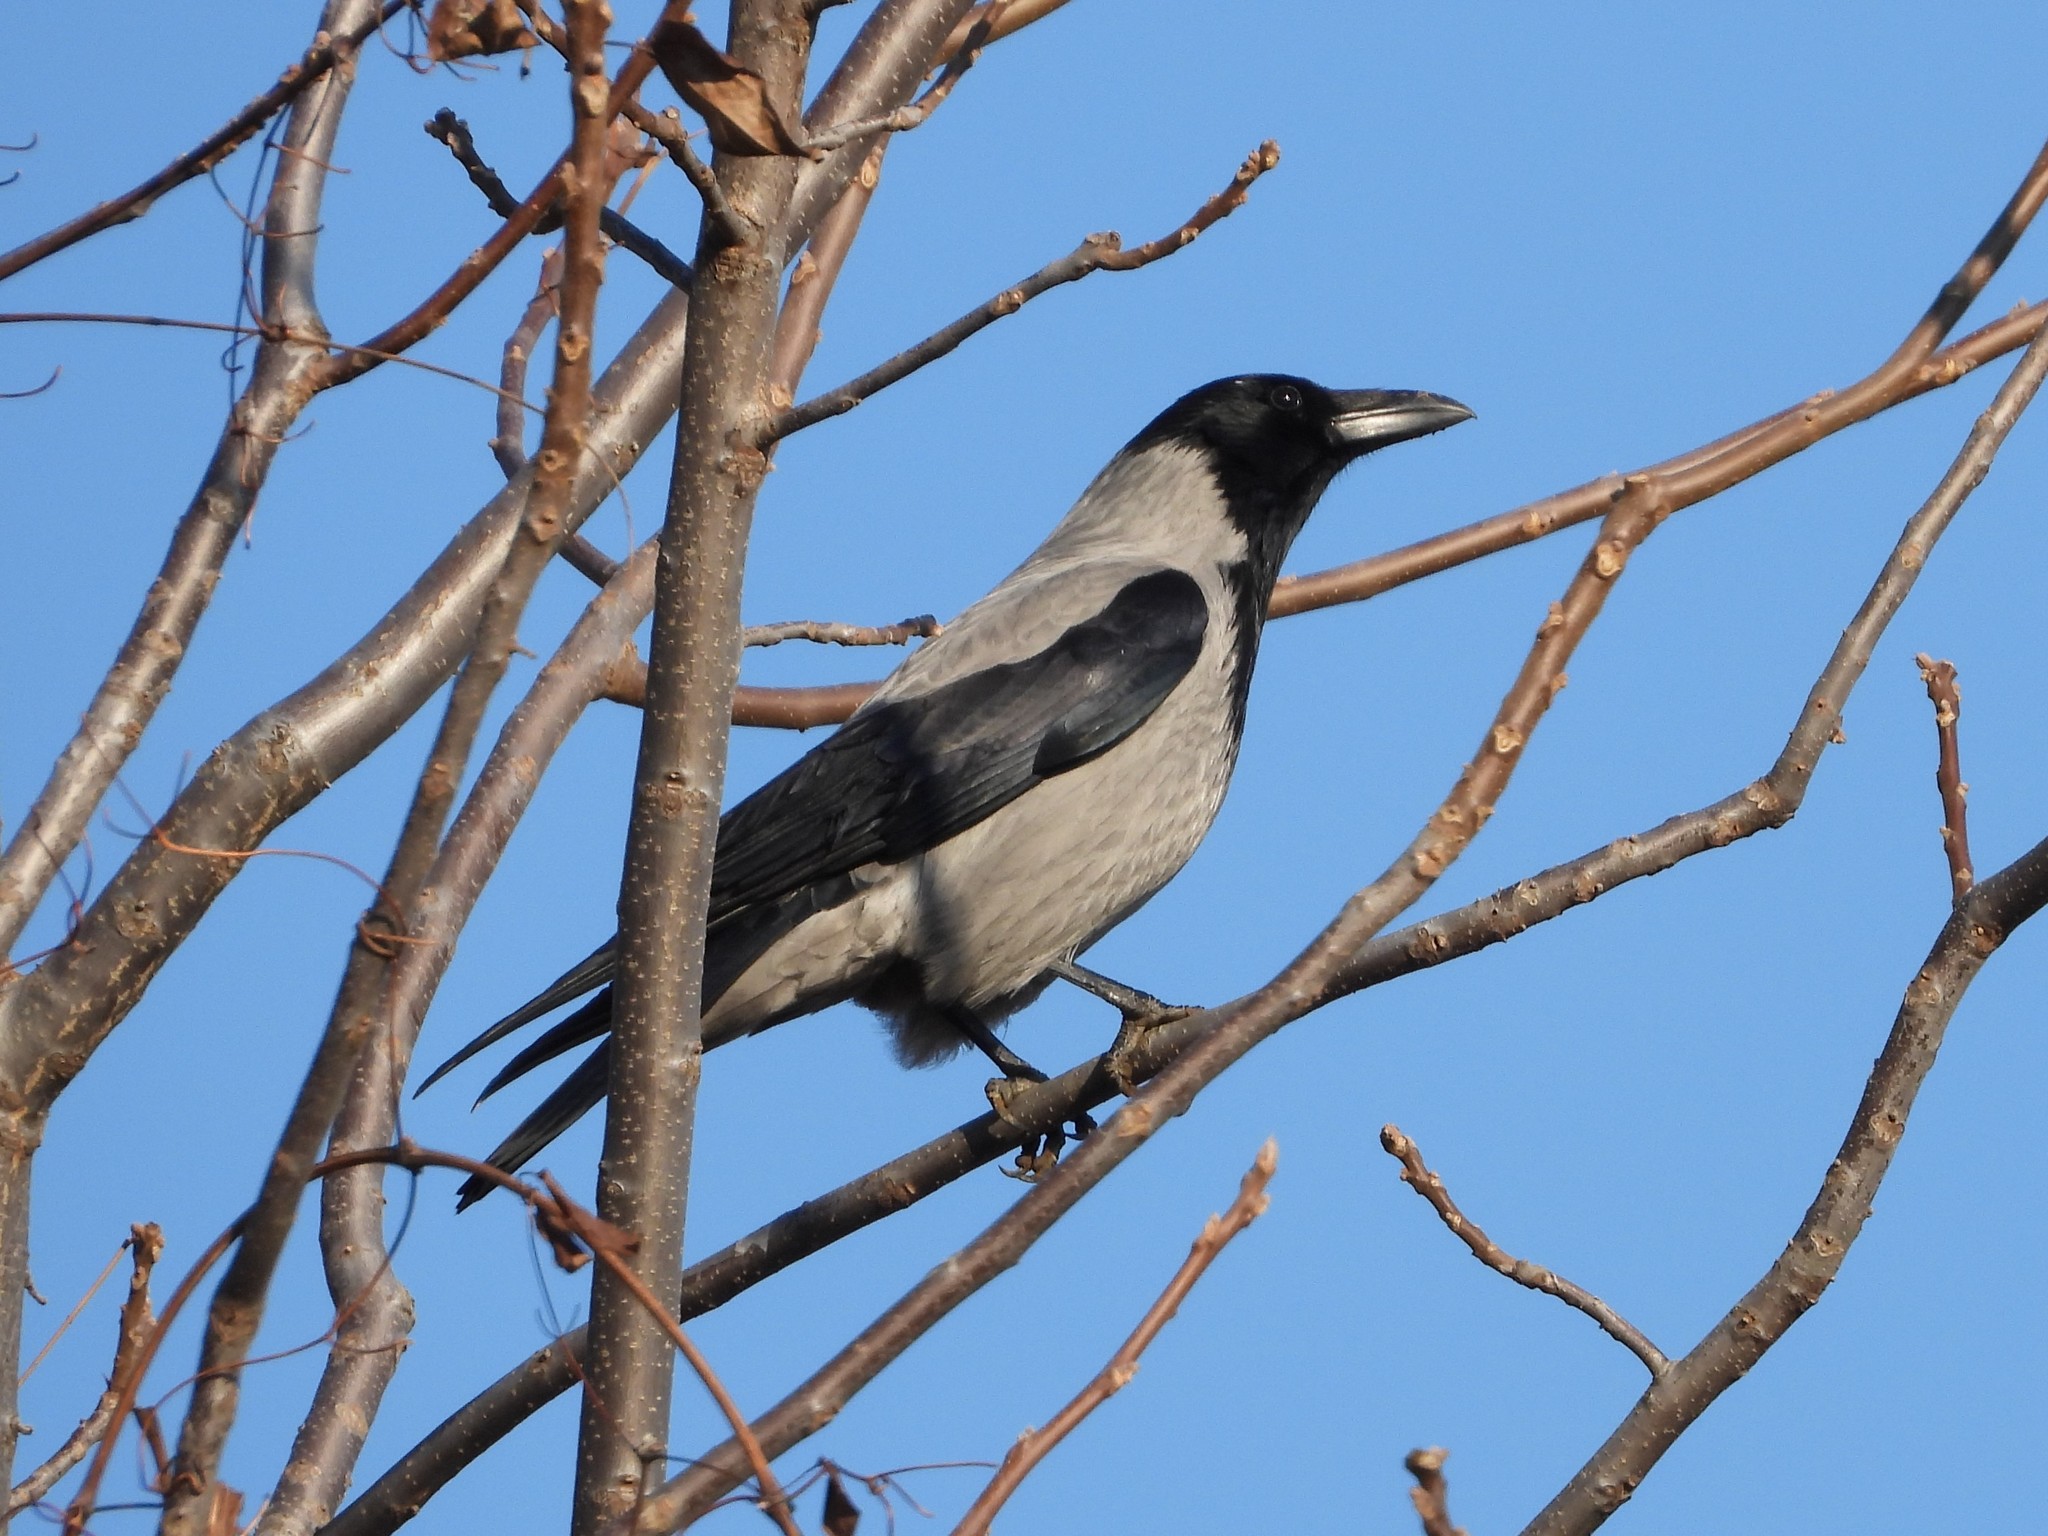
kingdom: Animalia
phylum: Chordata
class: Aves
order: Passeriformes
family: Corvidae
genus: Corvus
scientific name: Corvus cornix
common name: Hooded crow
